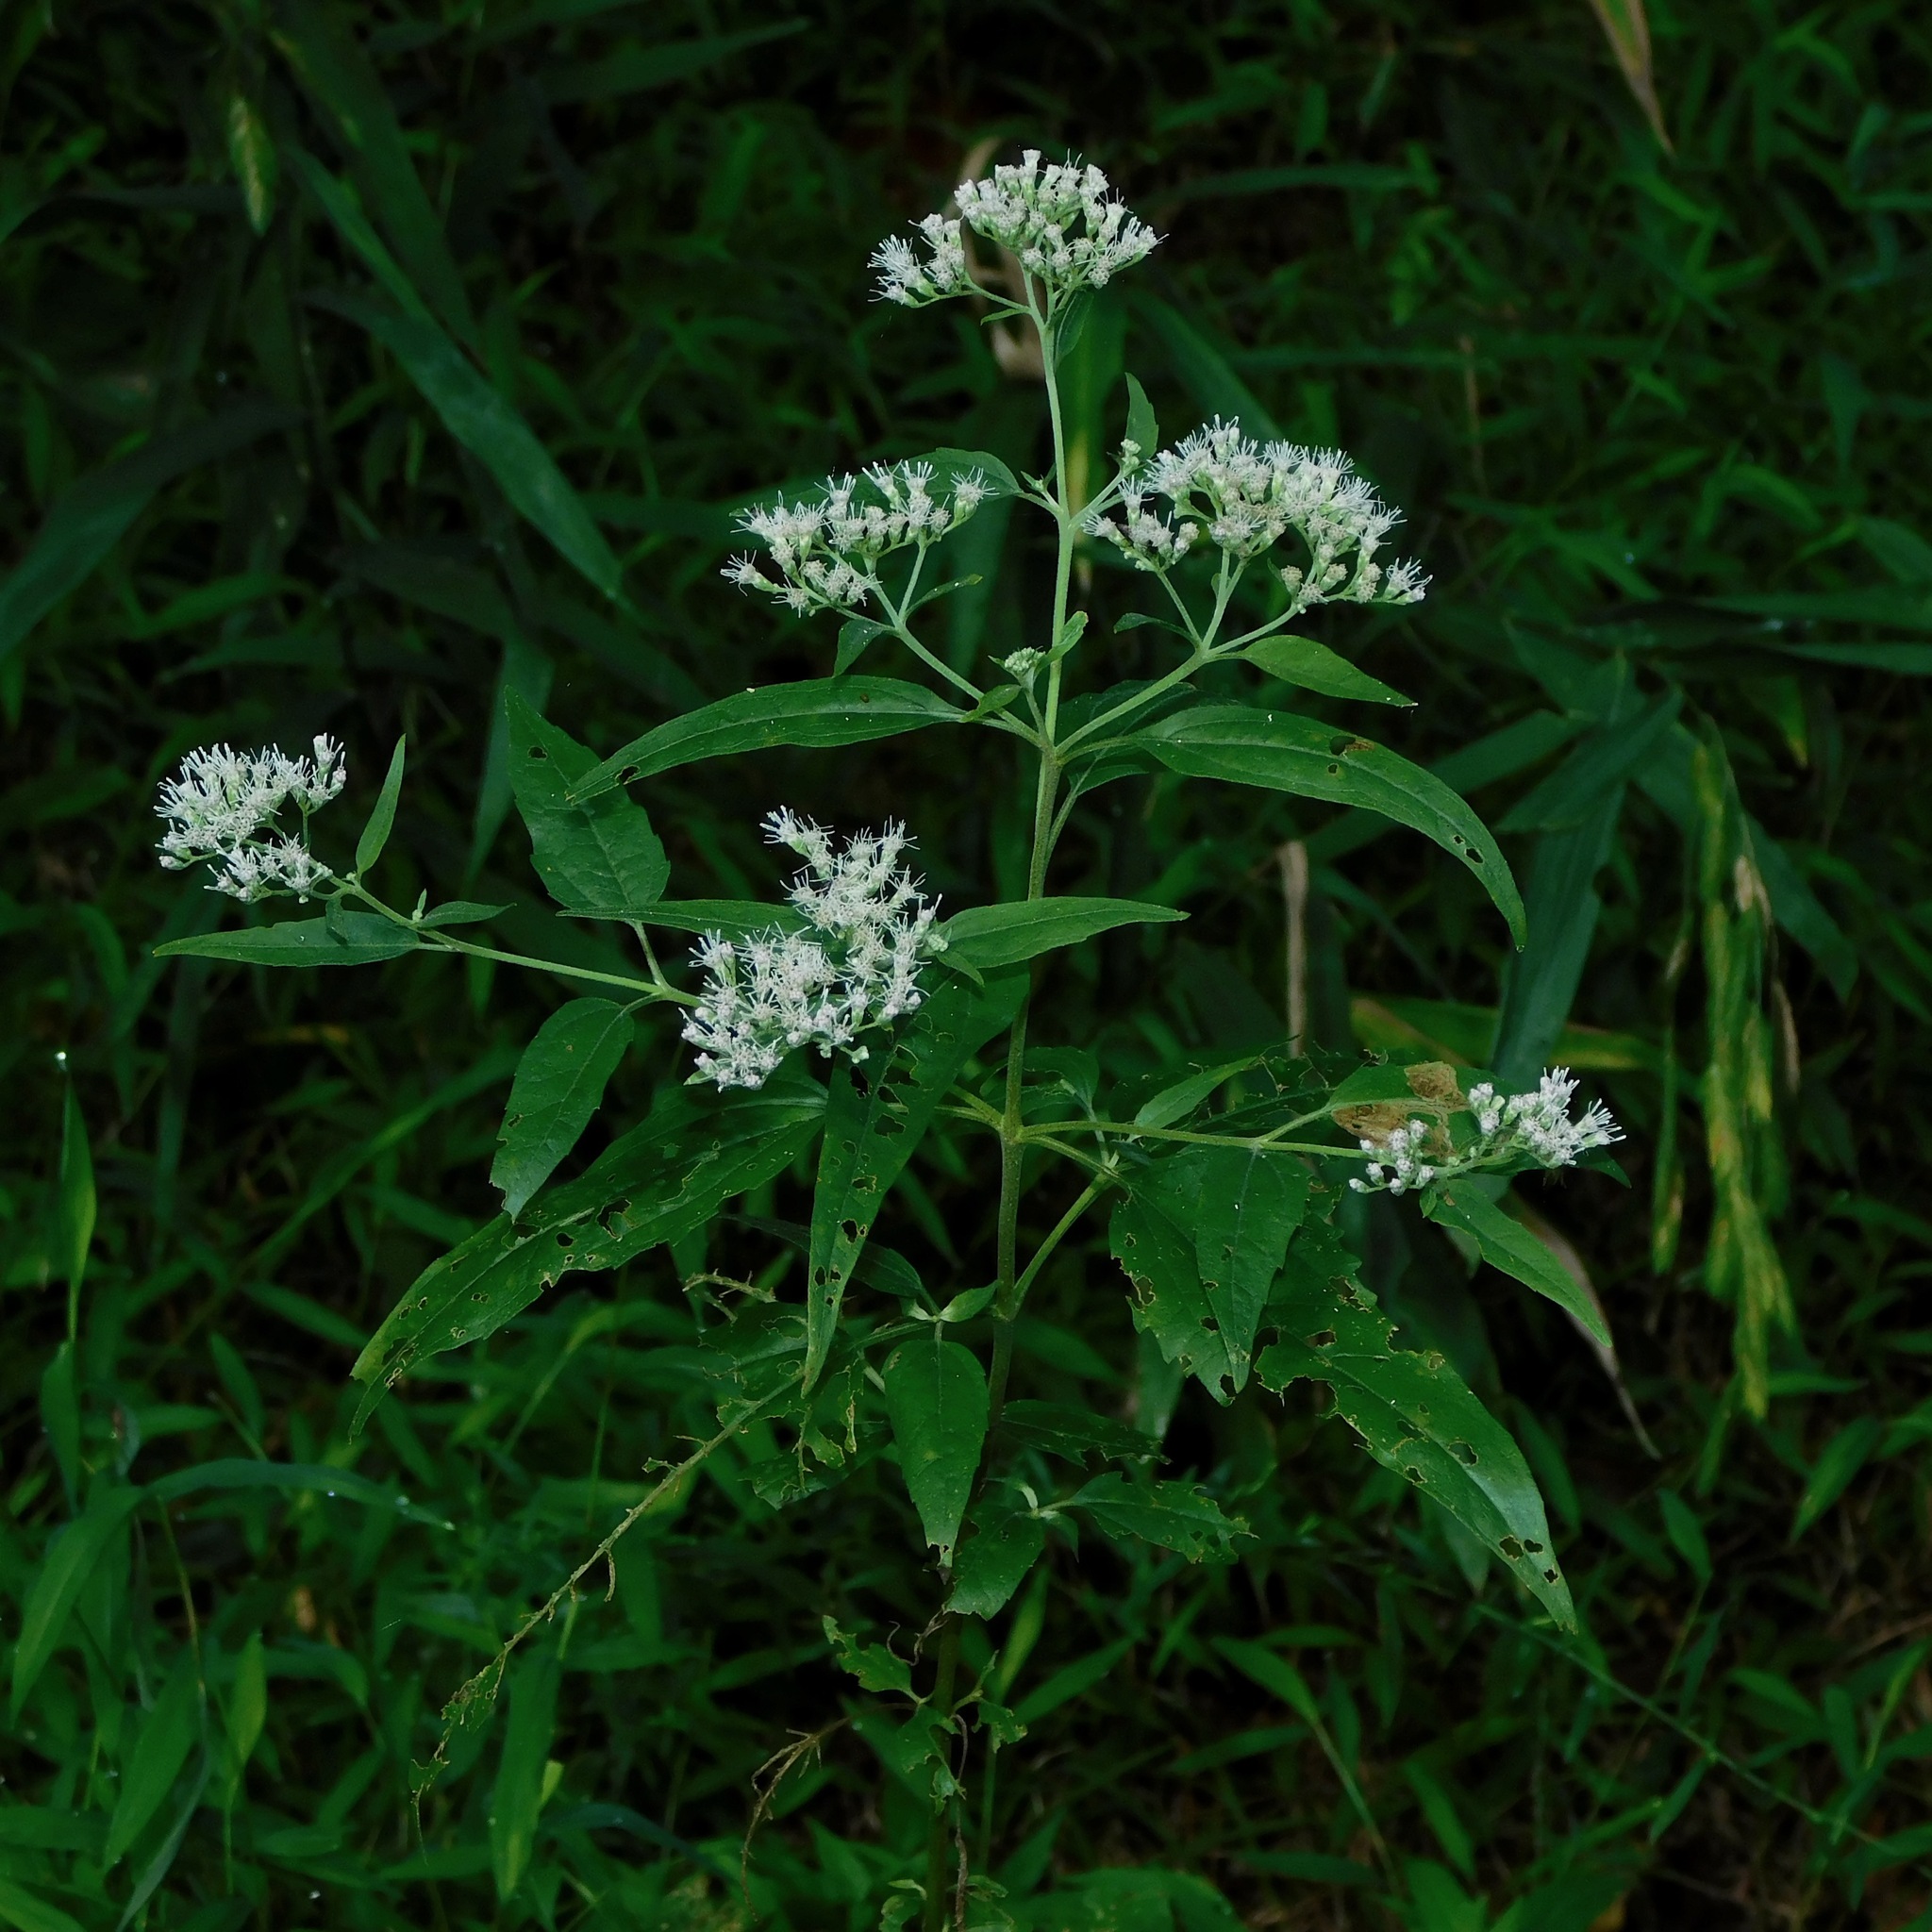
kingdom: Plantae
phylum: Tracheophyta
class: Magnoliopsida
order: Asterales
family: Asteraceae
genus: Eupatorium
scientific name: Eupatorium serotinum
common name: Late boneset
